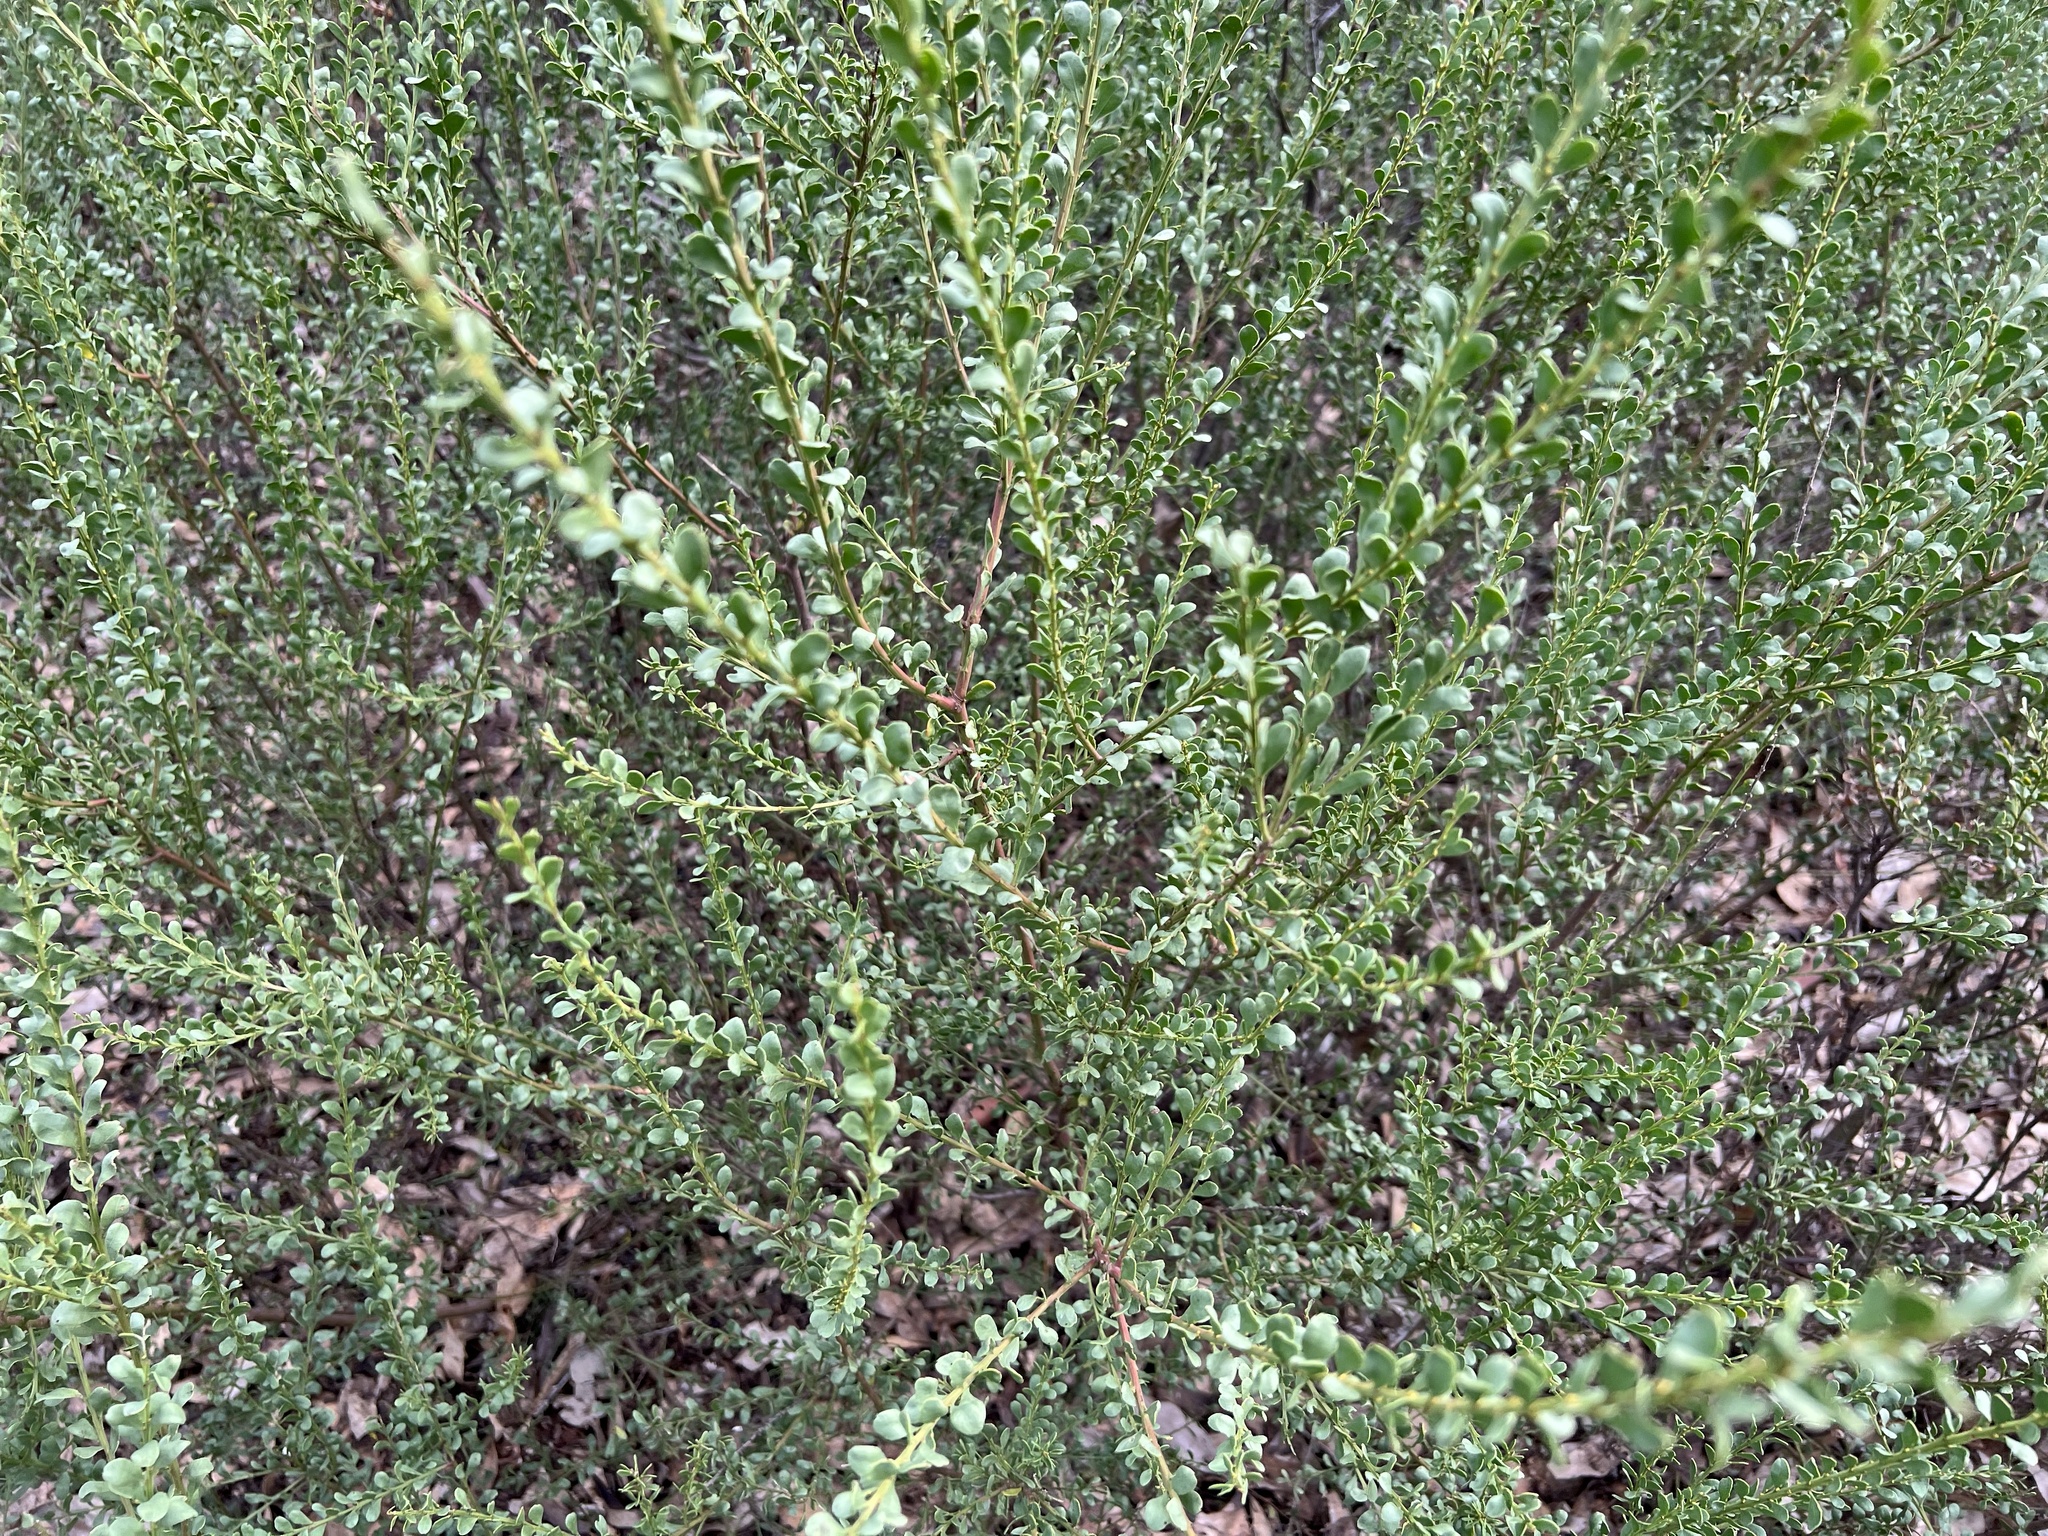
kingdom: Plantae
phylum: Tracheophyta
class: Magnoliopsida
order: Fabales
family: Fabaceae
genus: Acacia
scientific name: Acacia acinacea
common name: Gold-dust acacia
